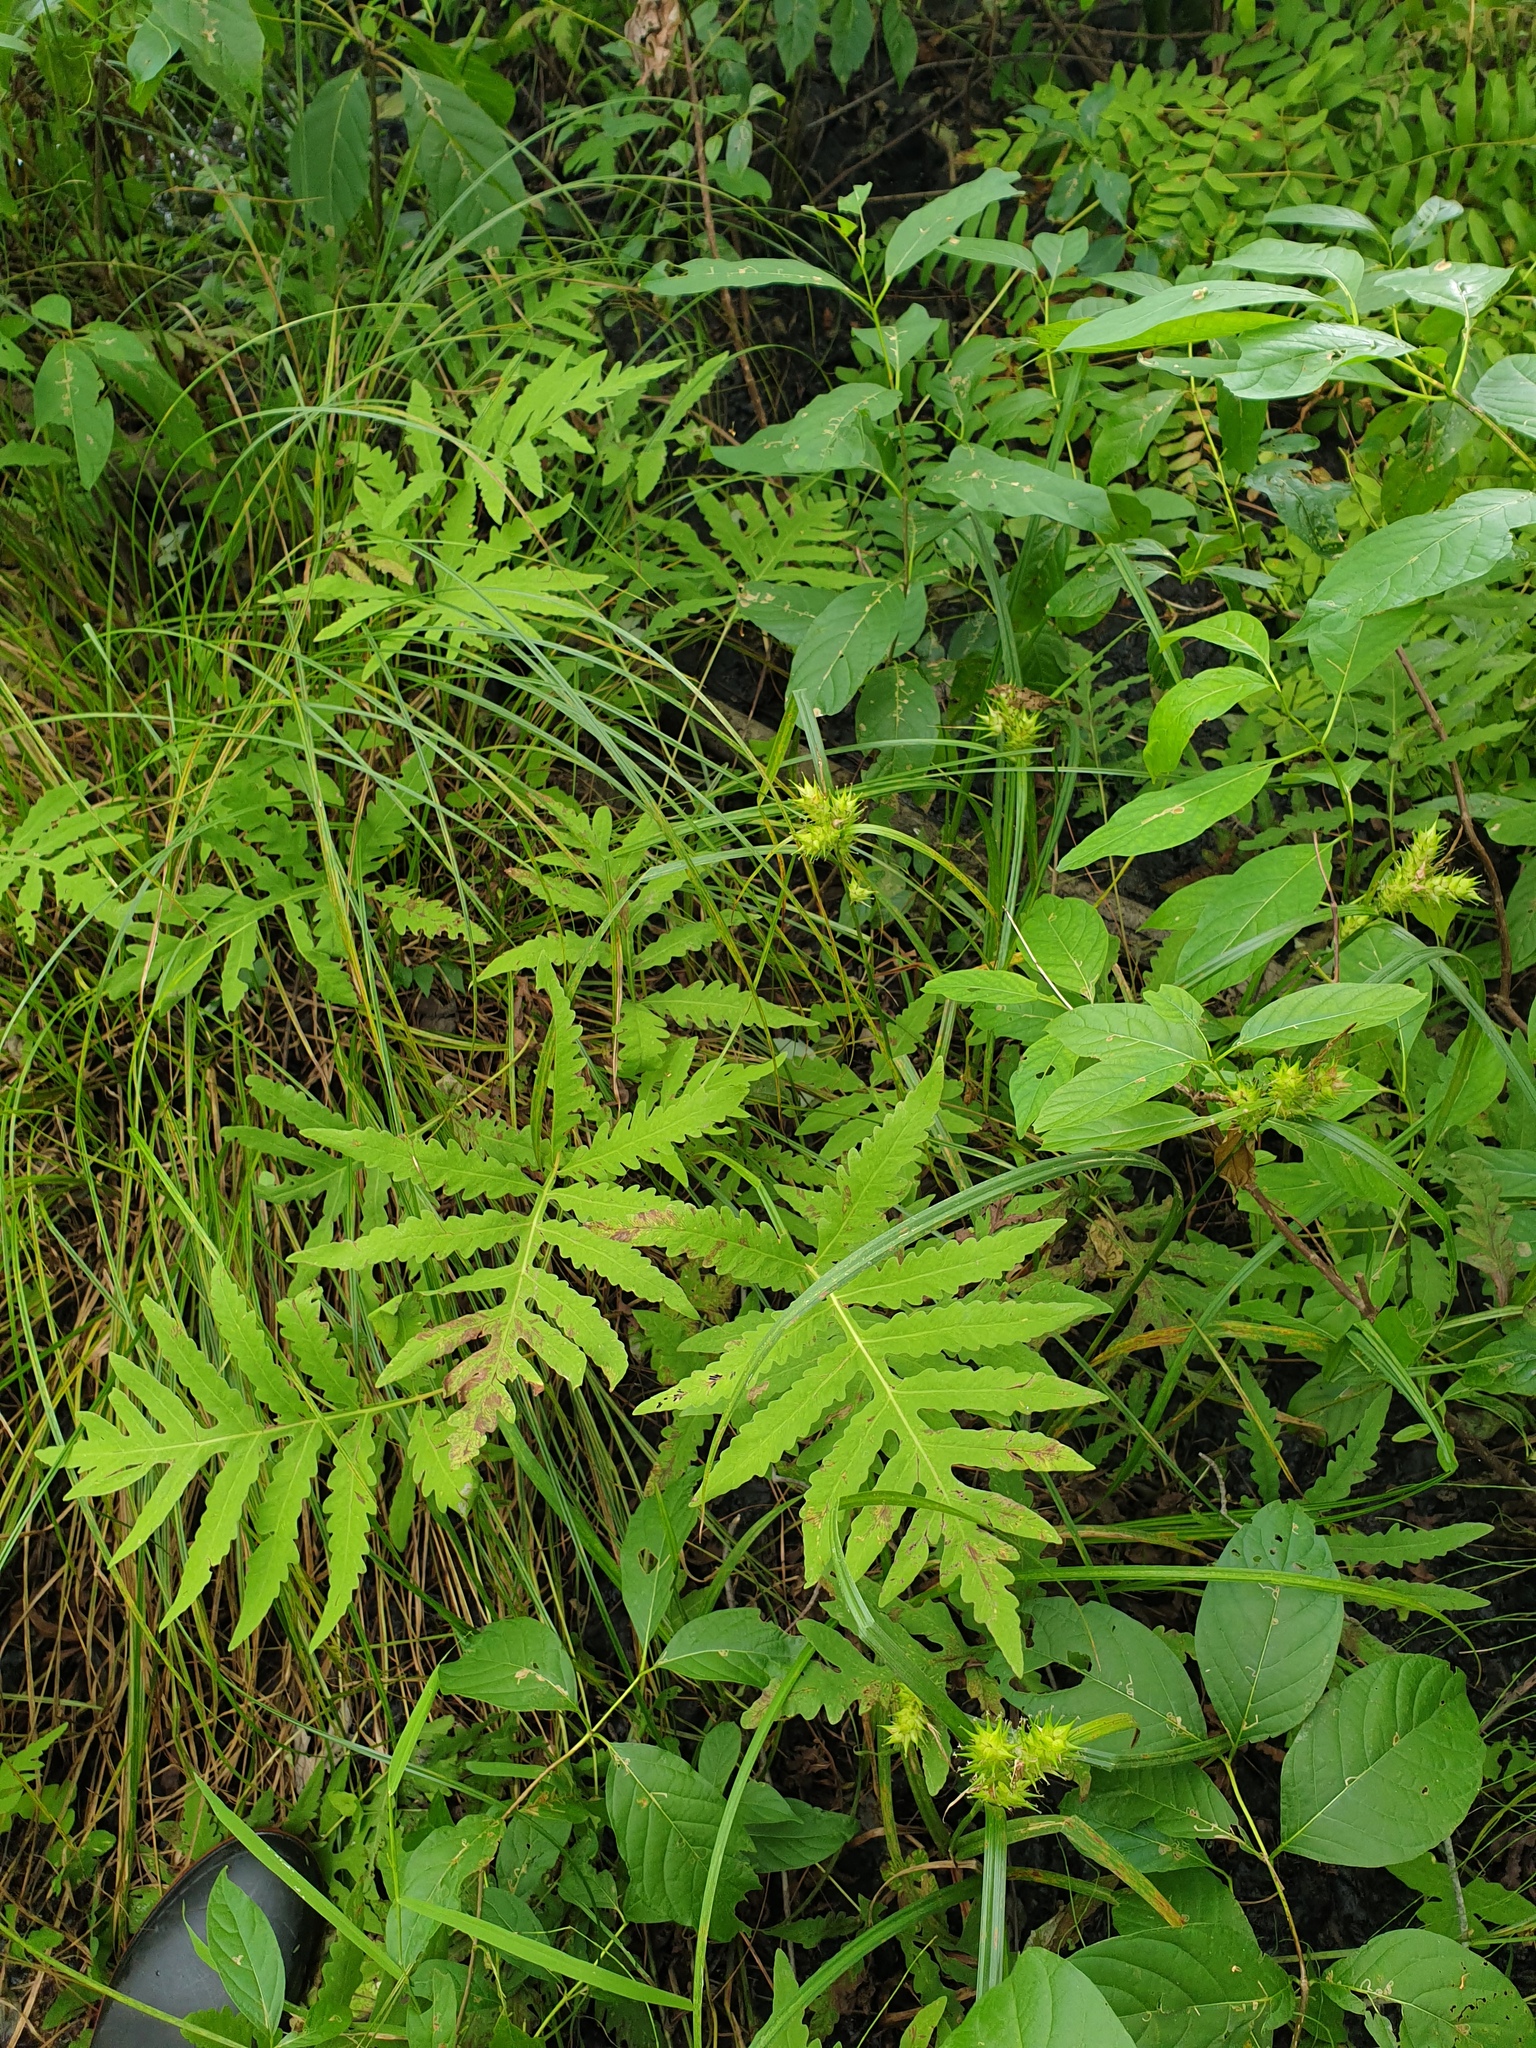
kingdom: Plantae
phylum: Tracheophyta
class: Liliopsida
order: Poales
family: Cyperaceae
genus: Carex
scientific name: Carex lupulina
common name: Hop sedge
